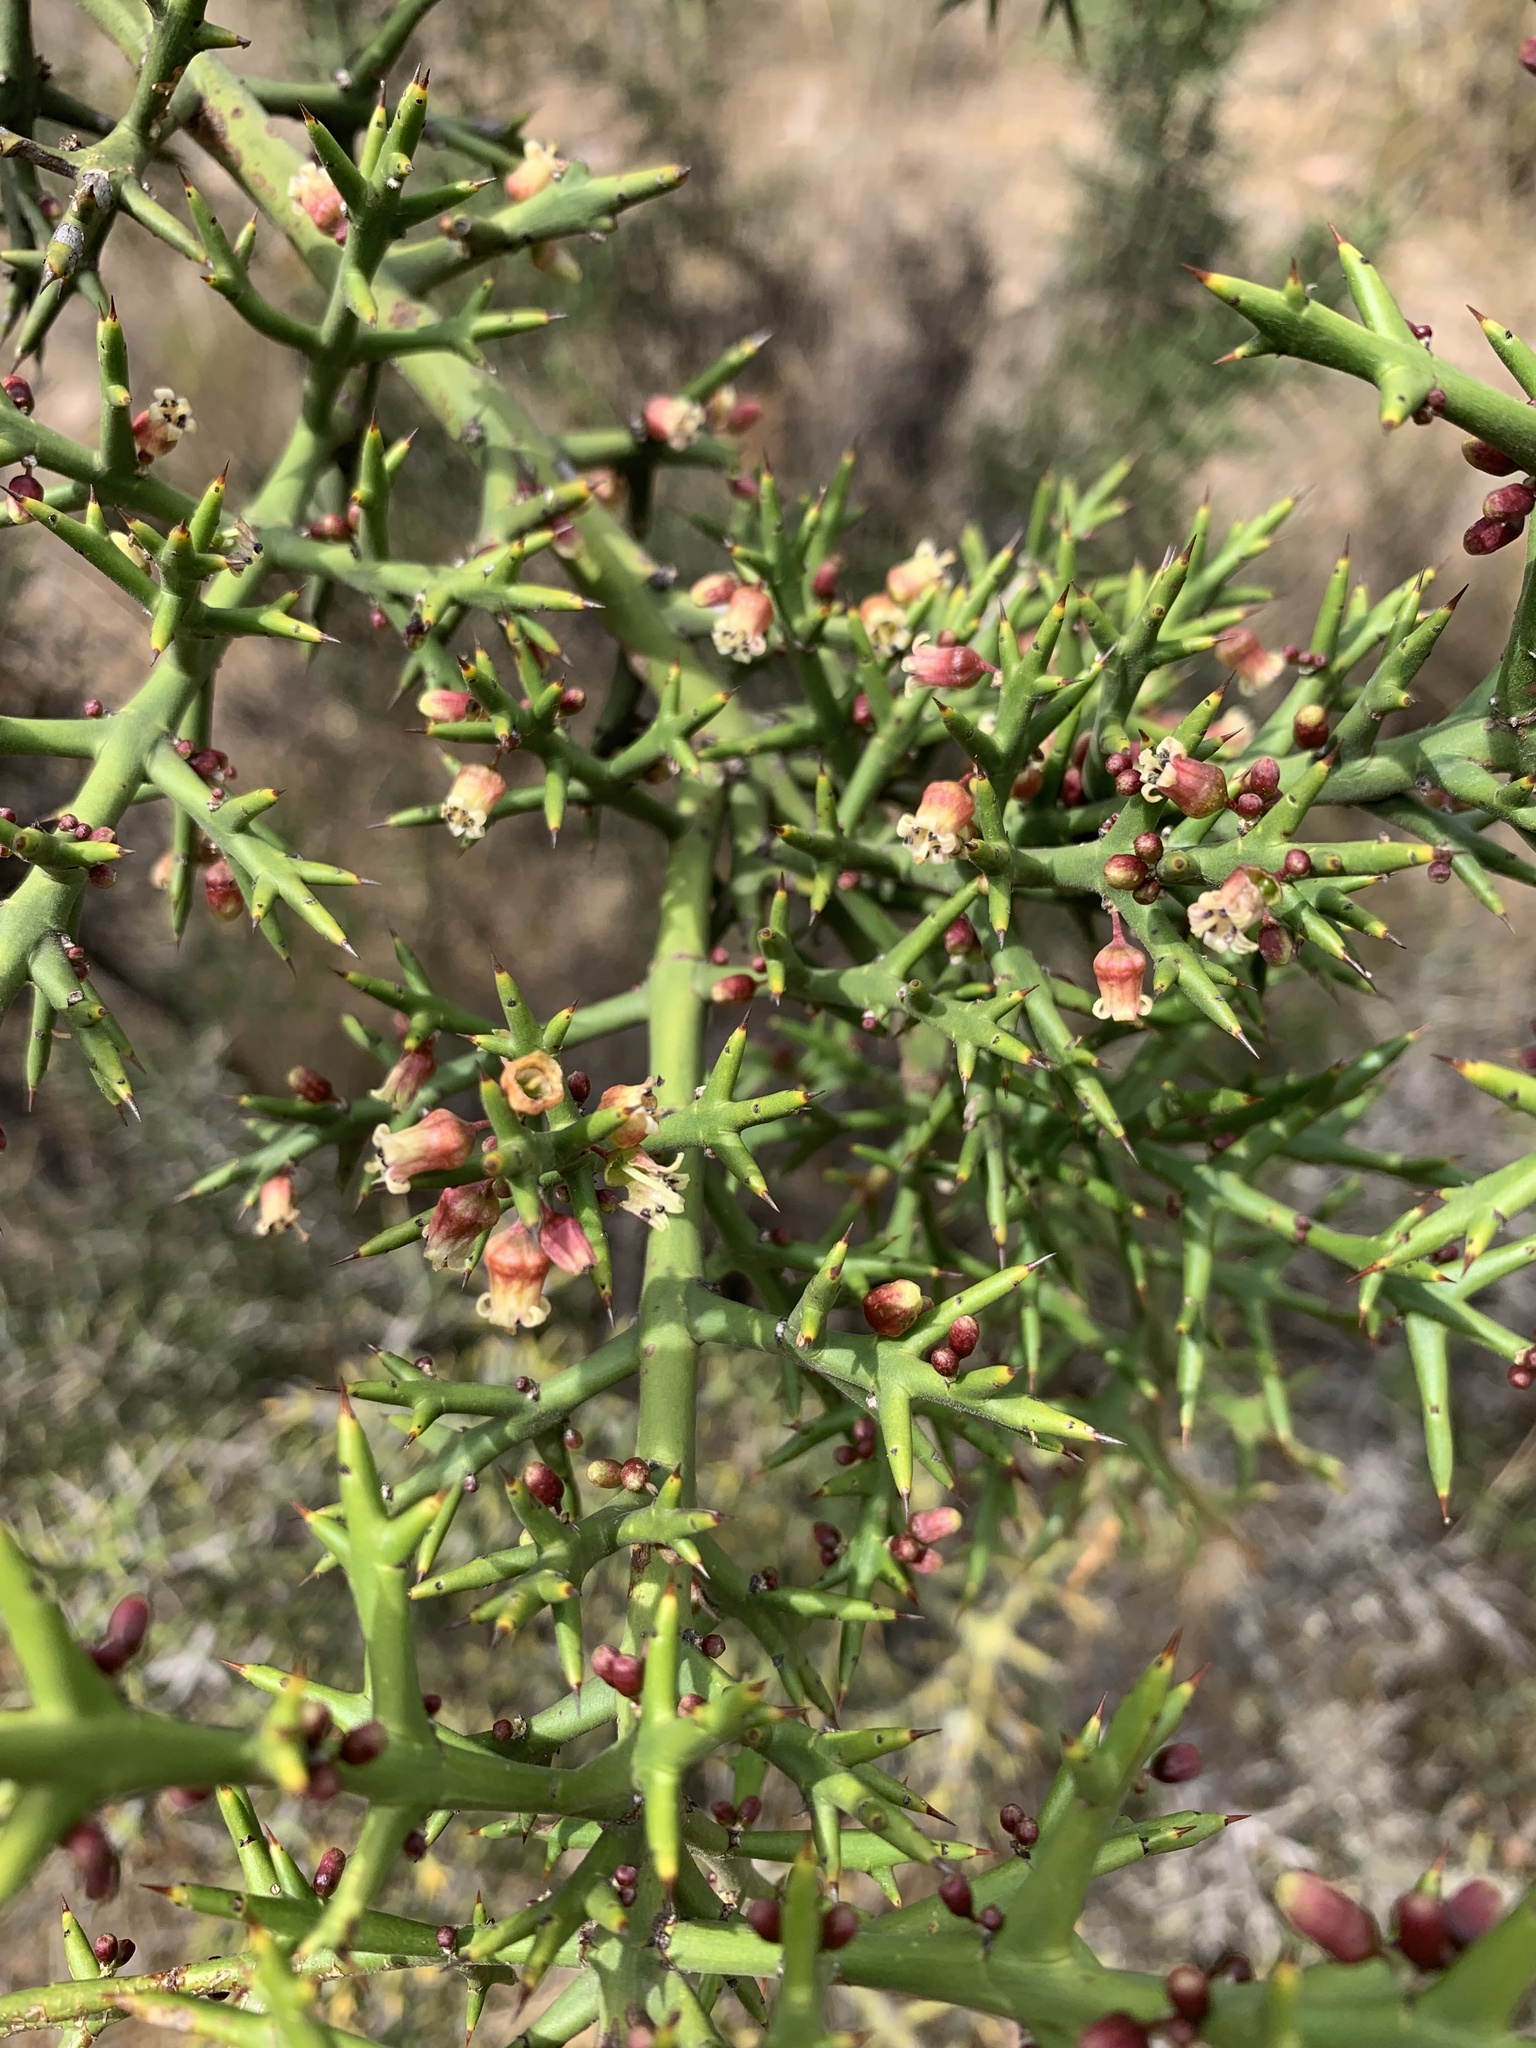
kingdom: Plantae
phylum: Tracheophyta
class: Magnoliopsida
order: Rosales
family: Rhamnaceae
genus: Colletia
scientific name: Colletia spinosissima
